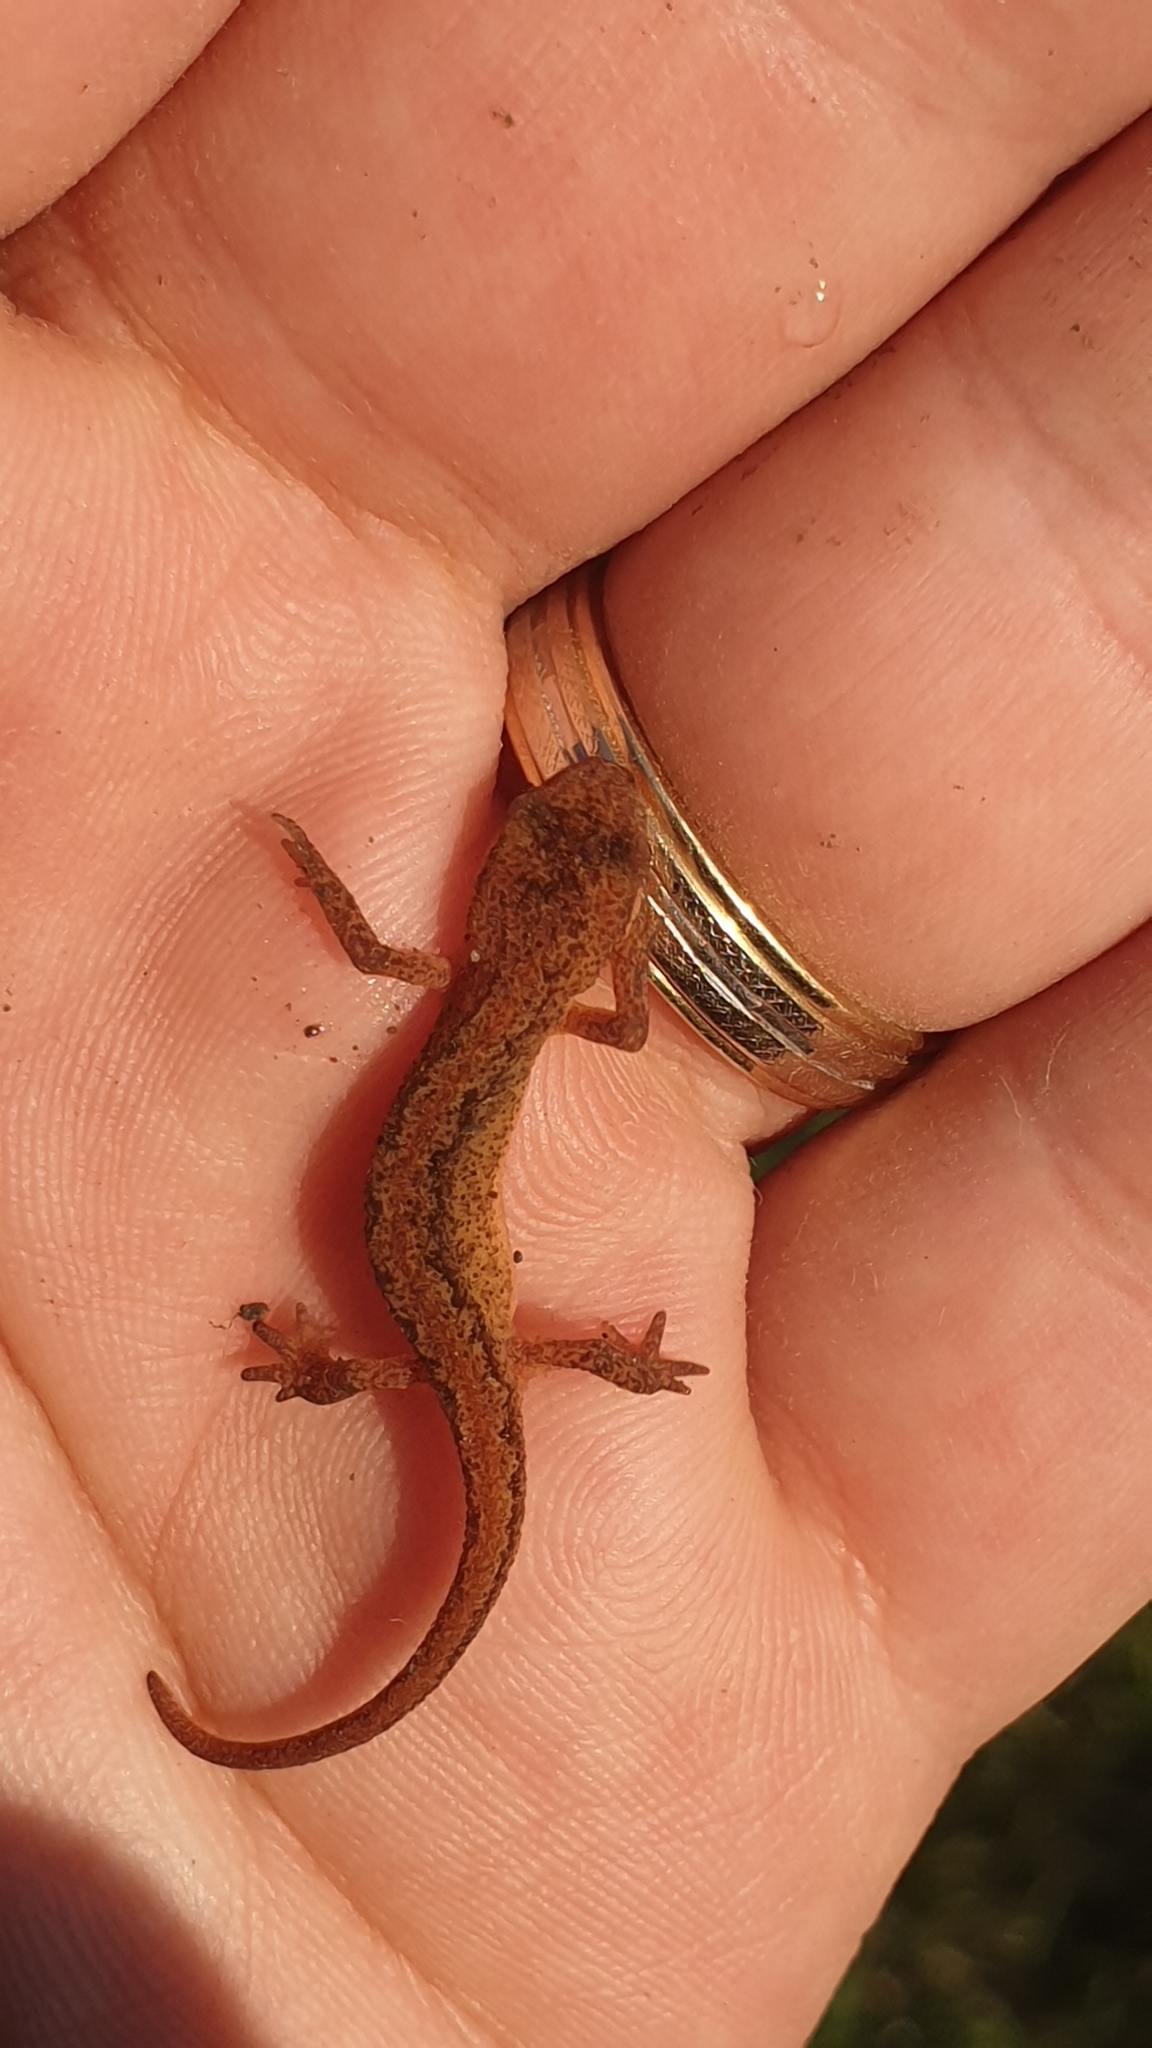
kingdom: Animalia
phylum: Chordata
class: Amphibia
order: Caudata
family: Salamandridae
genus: Lissotriton
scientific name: Lissotriton
